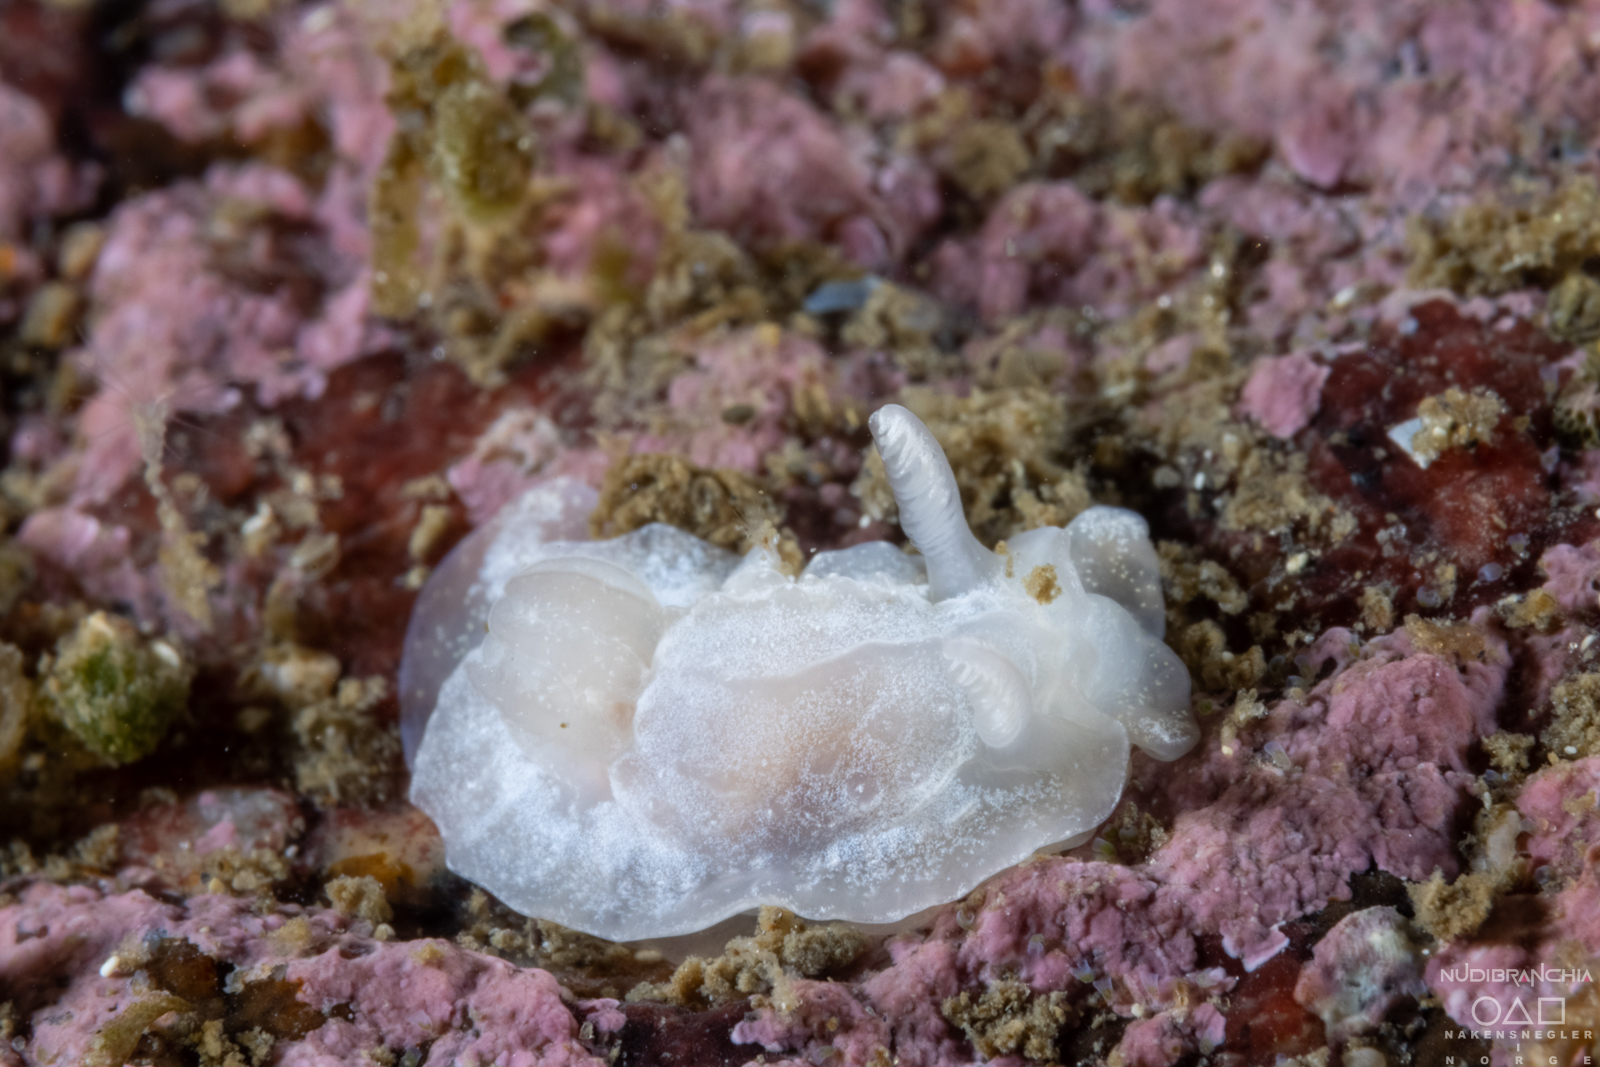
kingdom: Animalia
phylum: Mollusca
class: Gastropoda
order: Nudibranchia
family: Goniodorididae
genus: Okenia
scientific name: Okenia
